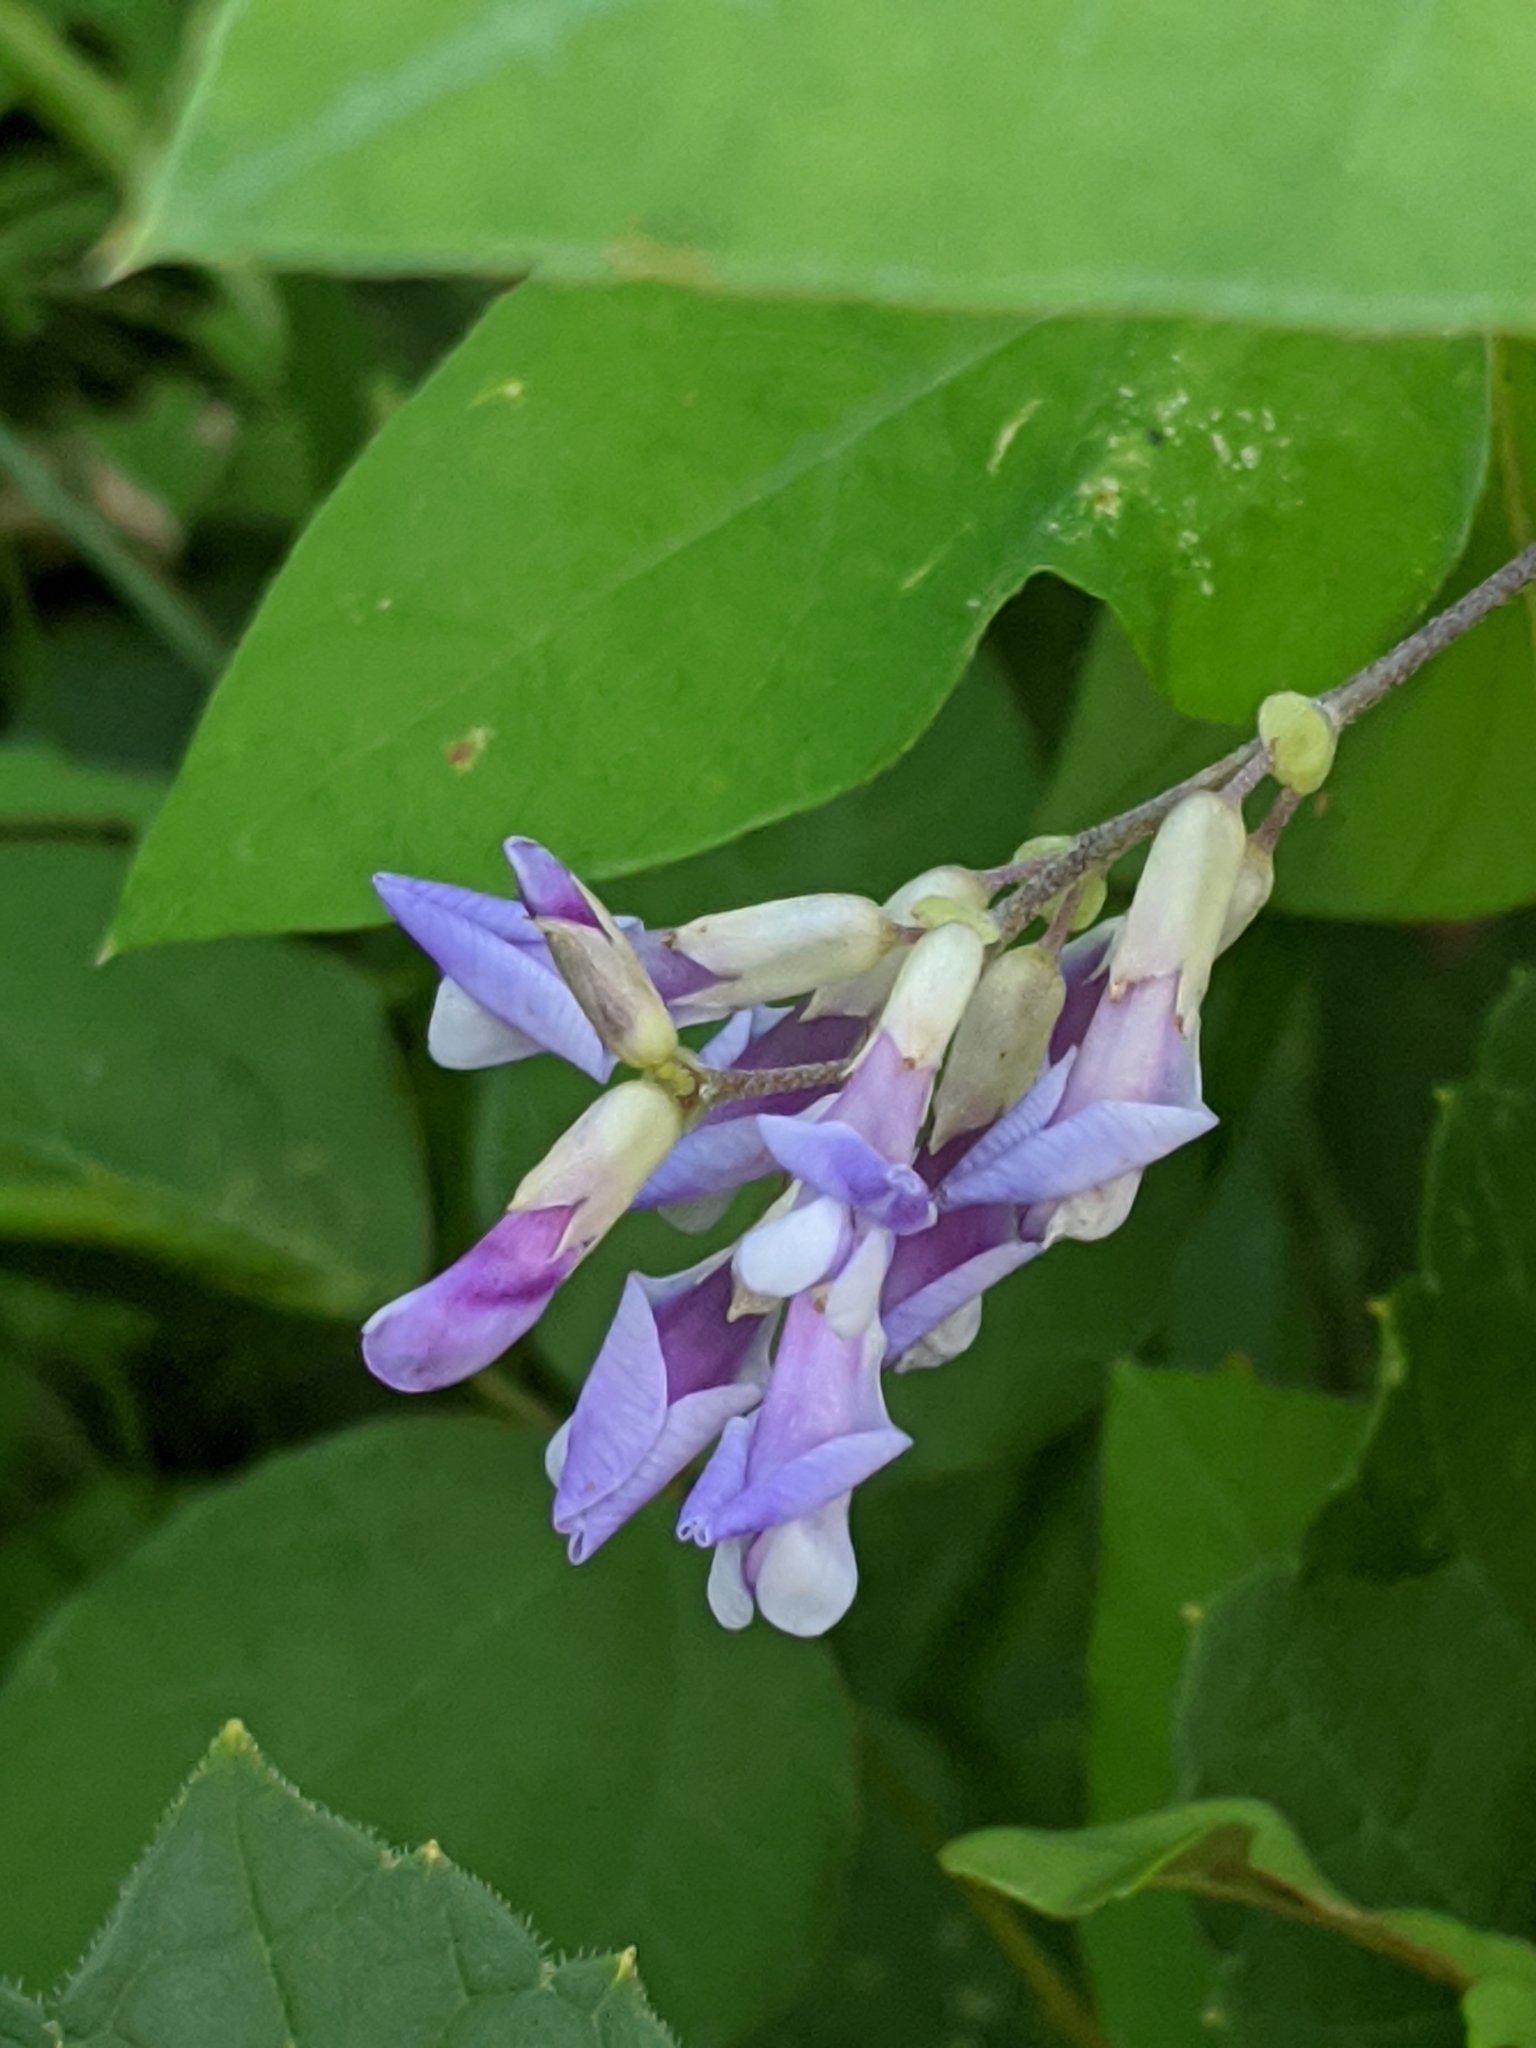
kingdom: Plantae
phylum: Tracheophyta
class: Magnoliopsida
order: Fabales
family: Fabaceae
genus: Amphicarpaea
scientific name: Amphicarpaea bracteata
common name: American hog peanut
